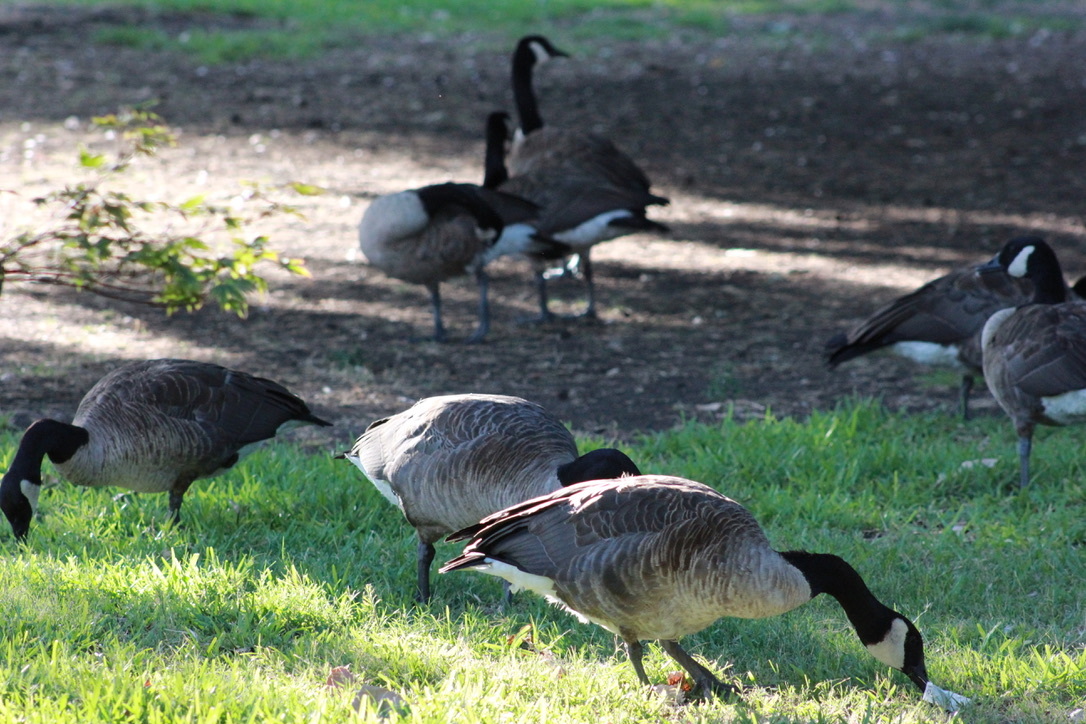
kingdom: Animalia
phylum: Chordata
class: Aves
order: Anseriformes
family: Anatidae
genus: Branta
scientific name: Branta canadensis
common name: Canada goose
